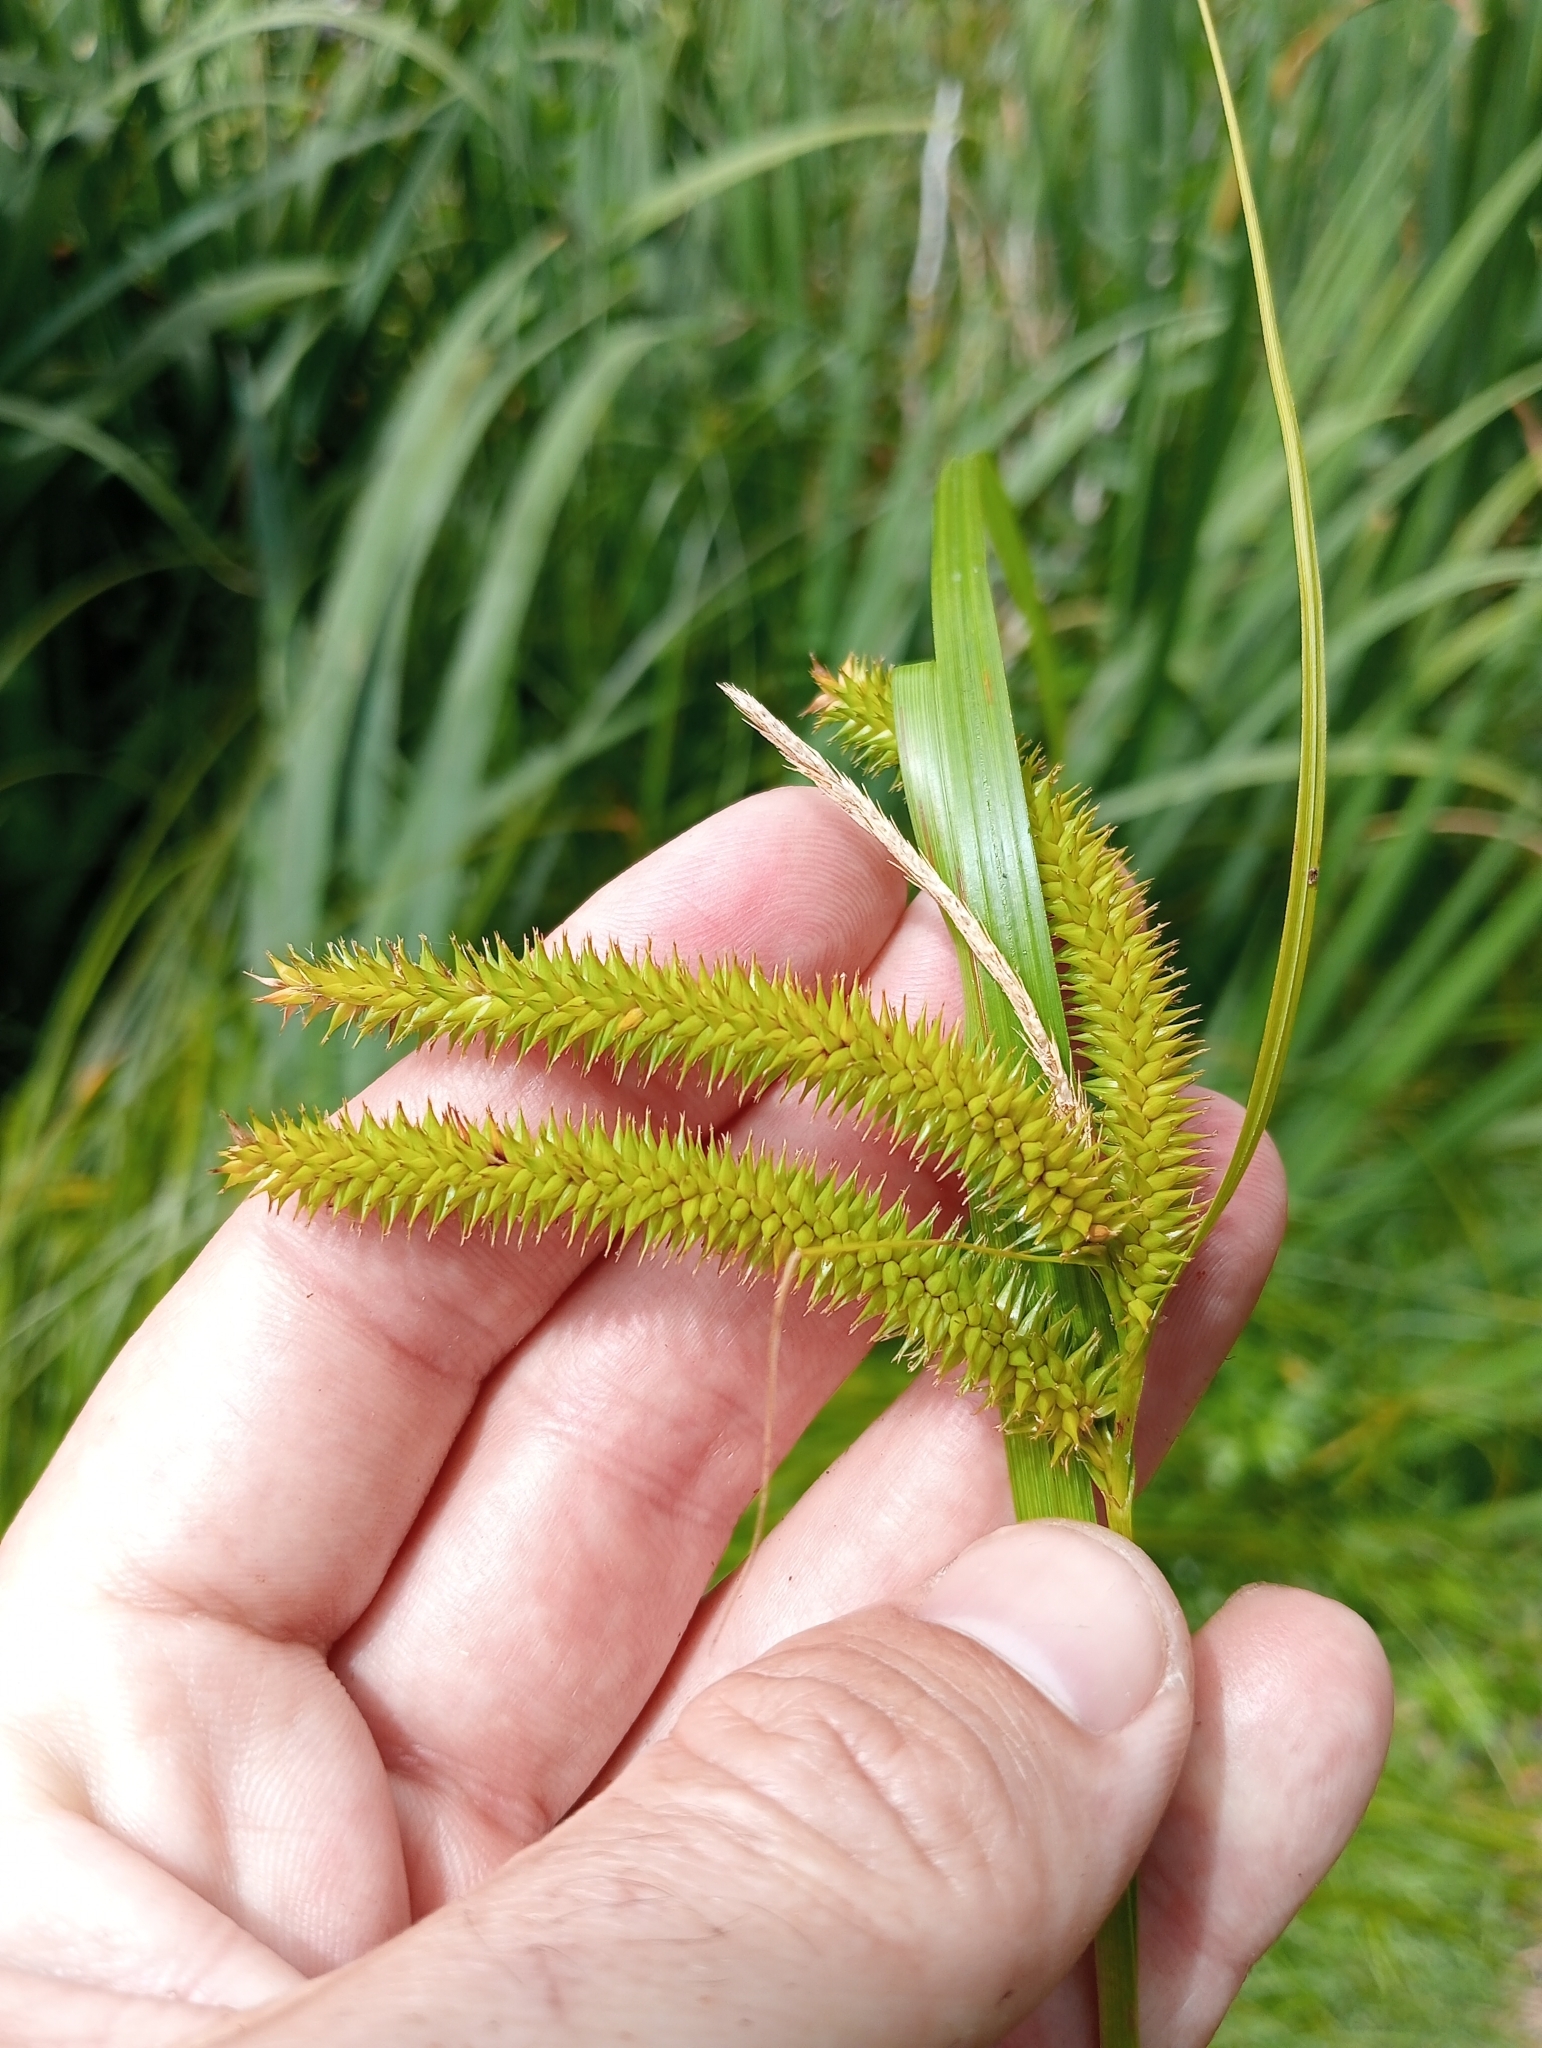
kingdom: Plantae
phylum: Tracheophyta
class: Liliopsida
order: Poales
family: Cyperaceae
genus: Carex
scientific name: Carex maorica
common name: Maori sedge
